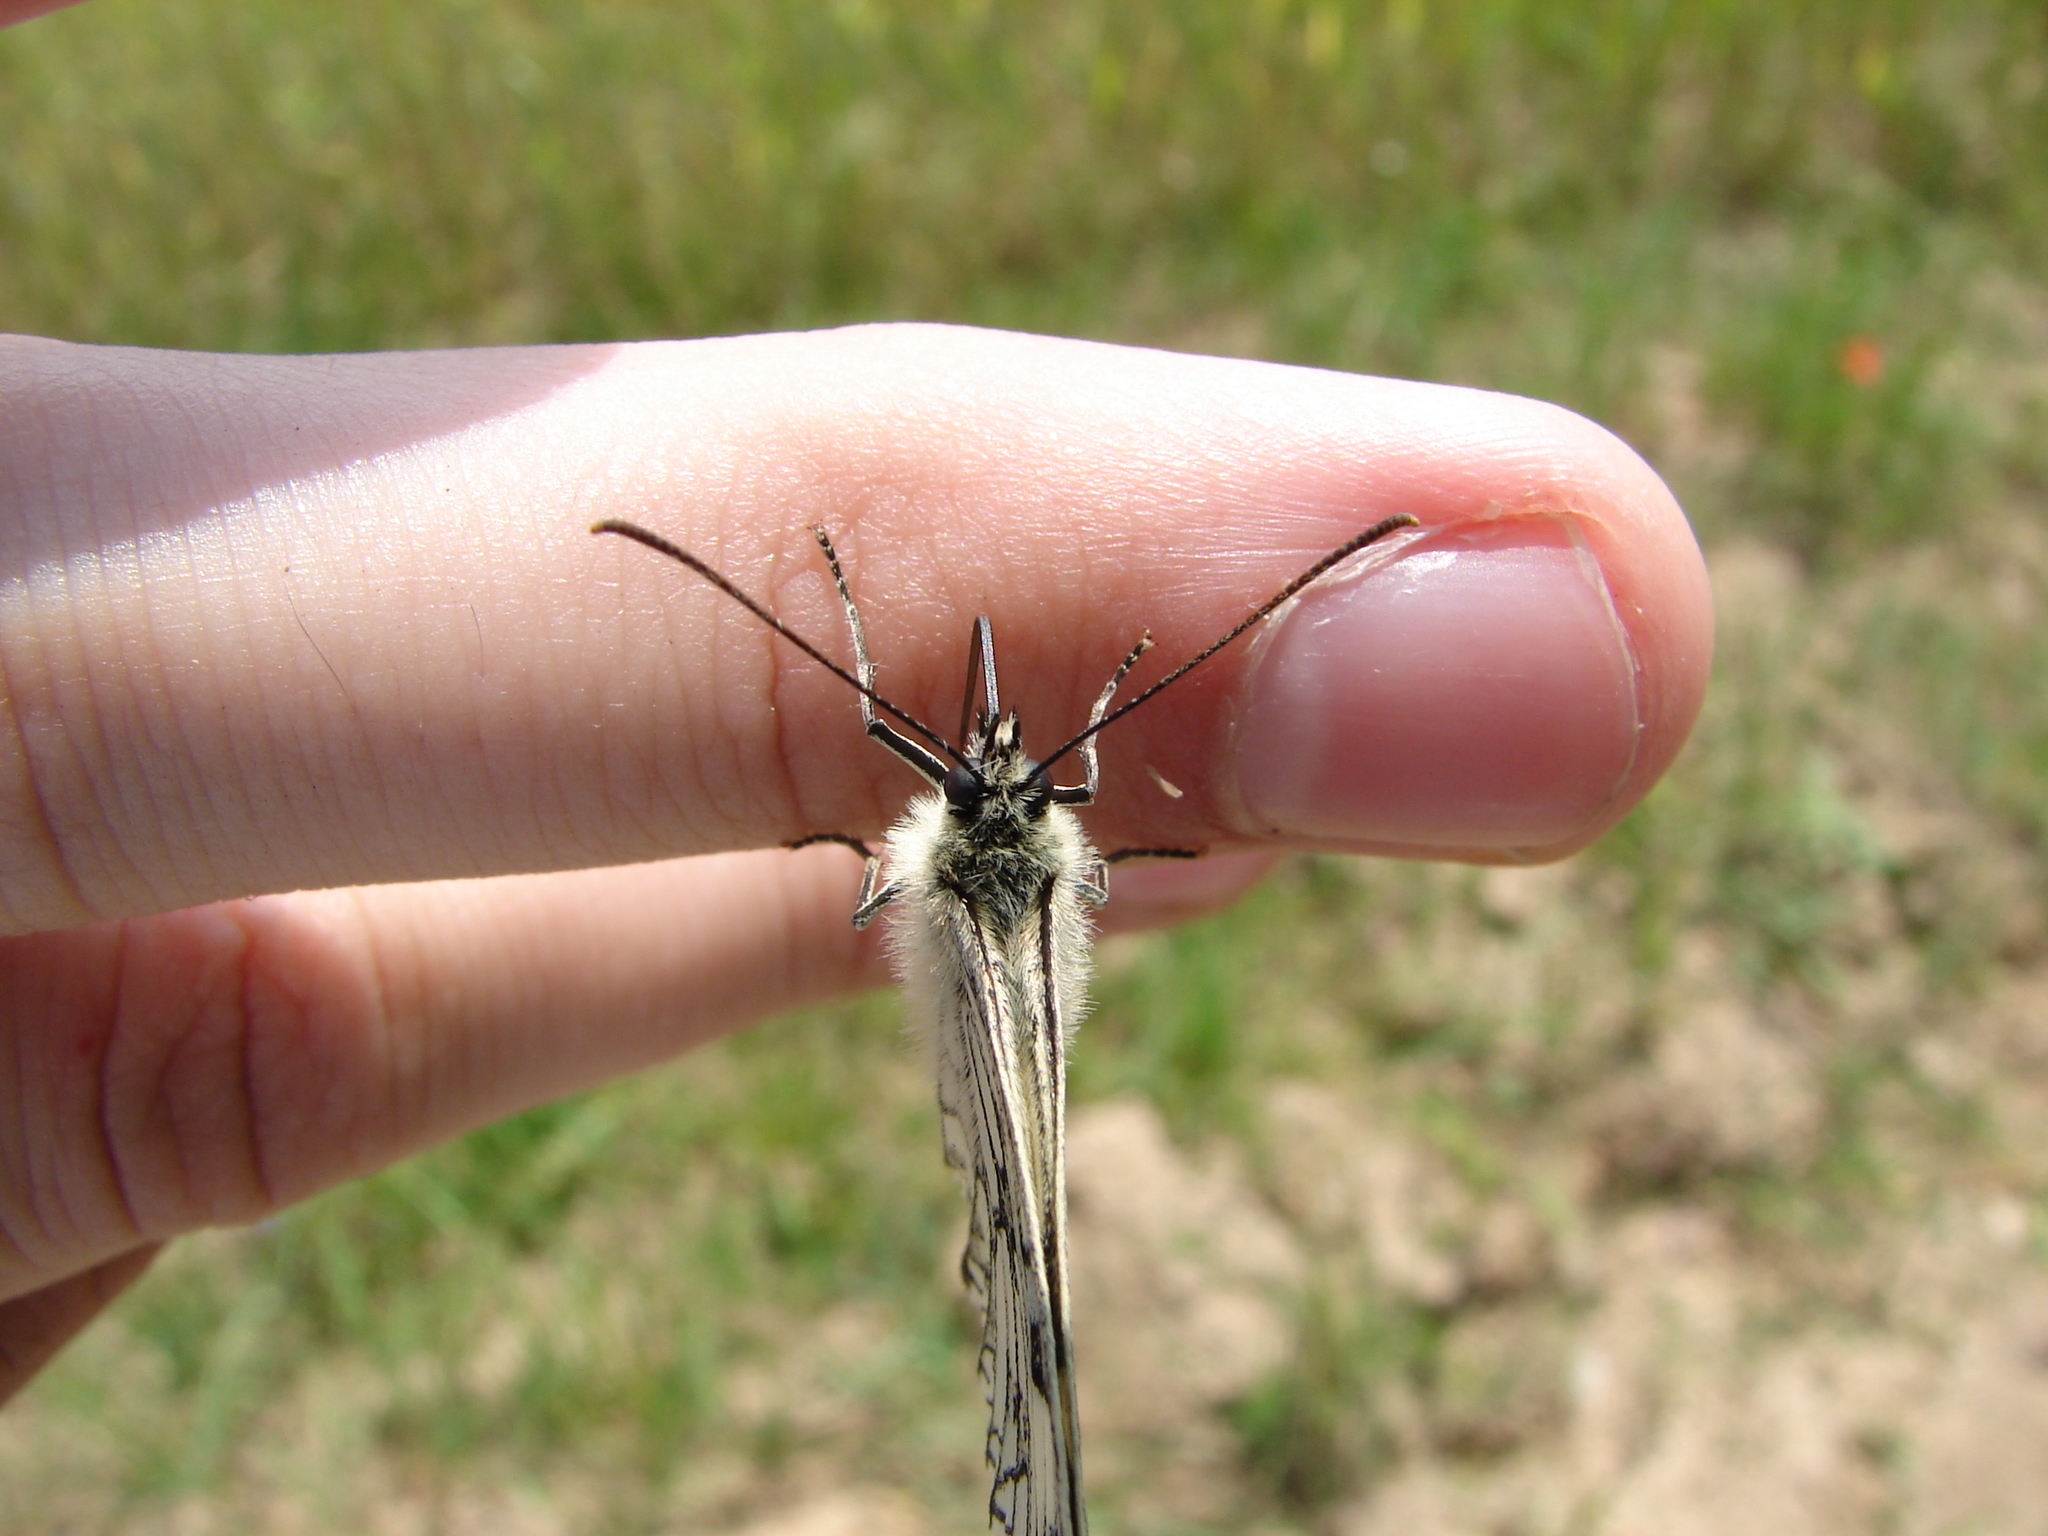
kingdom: Animalia
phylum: Arthropoda
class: Insecta
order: Lepidoptera
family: Nymphalidae
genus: Melanargia
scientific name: Melanargia galathea
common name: Marbled white
